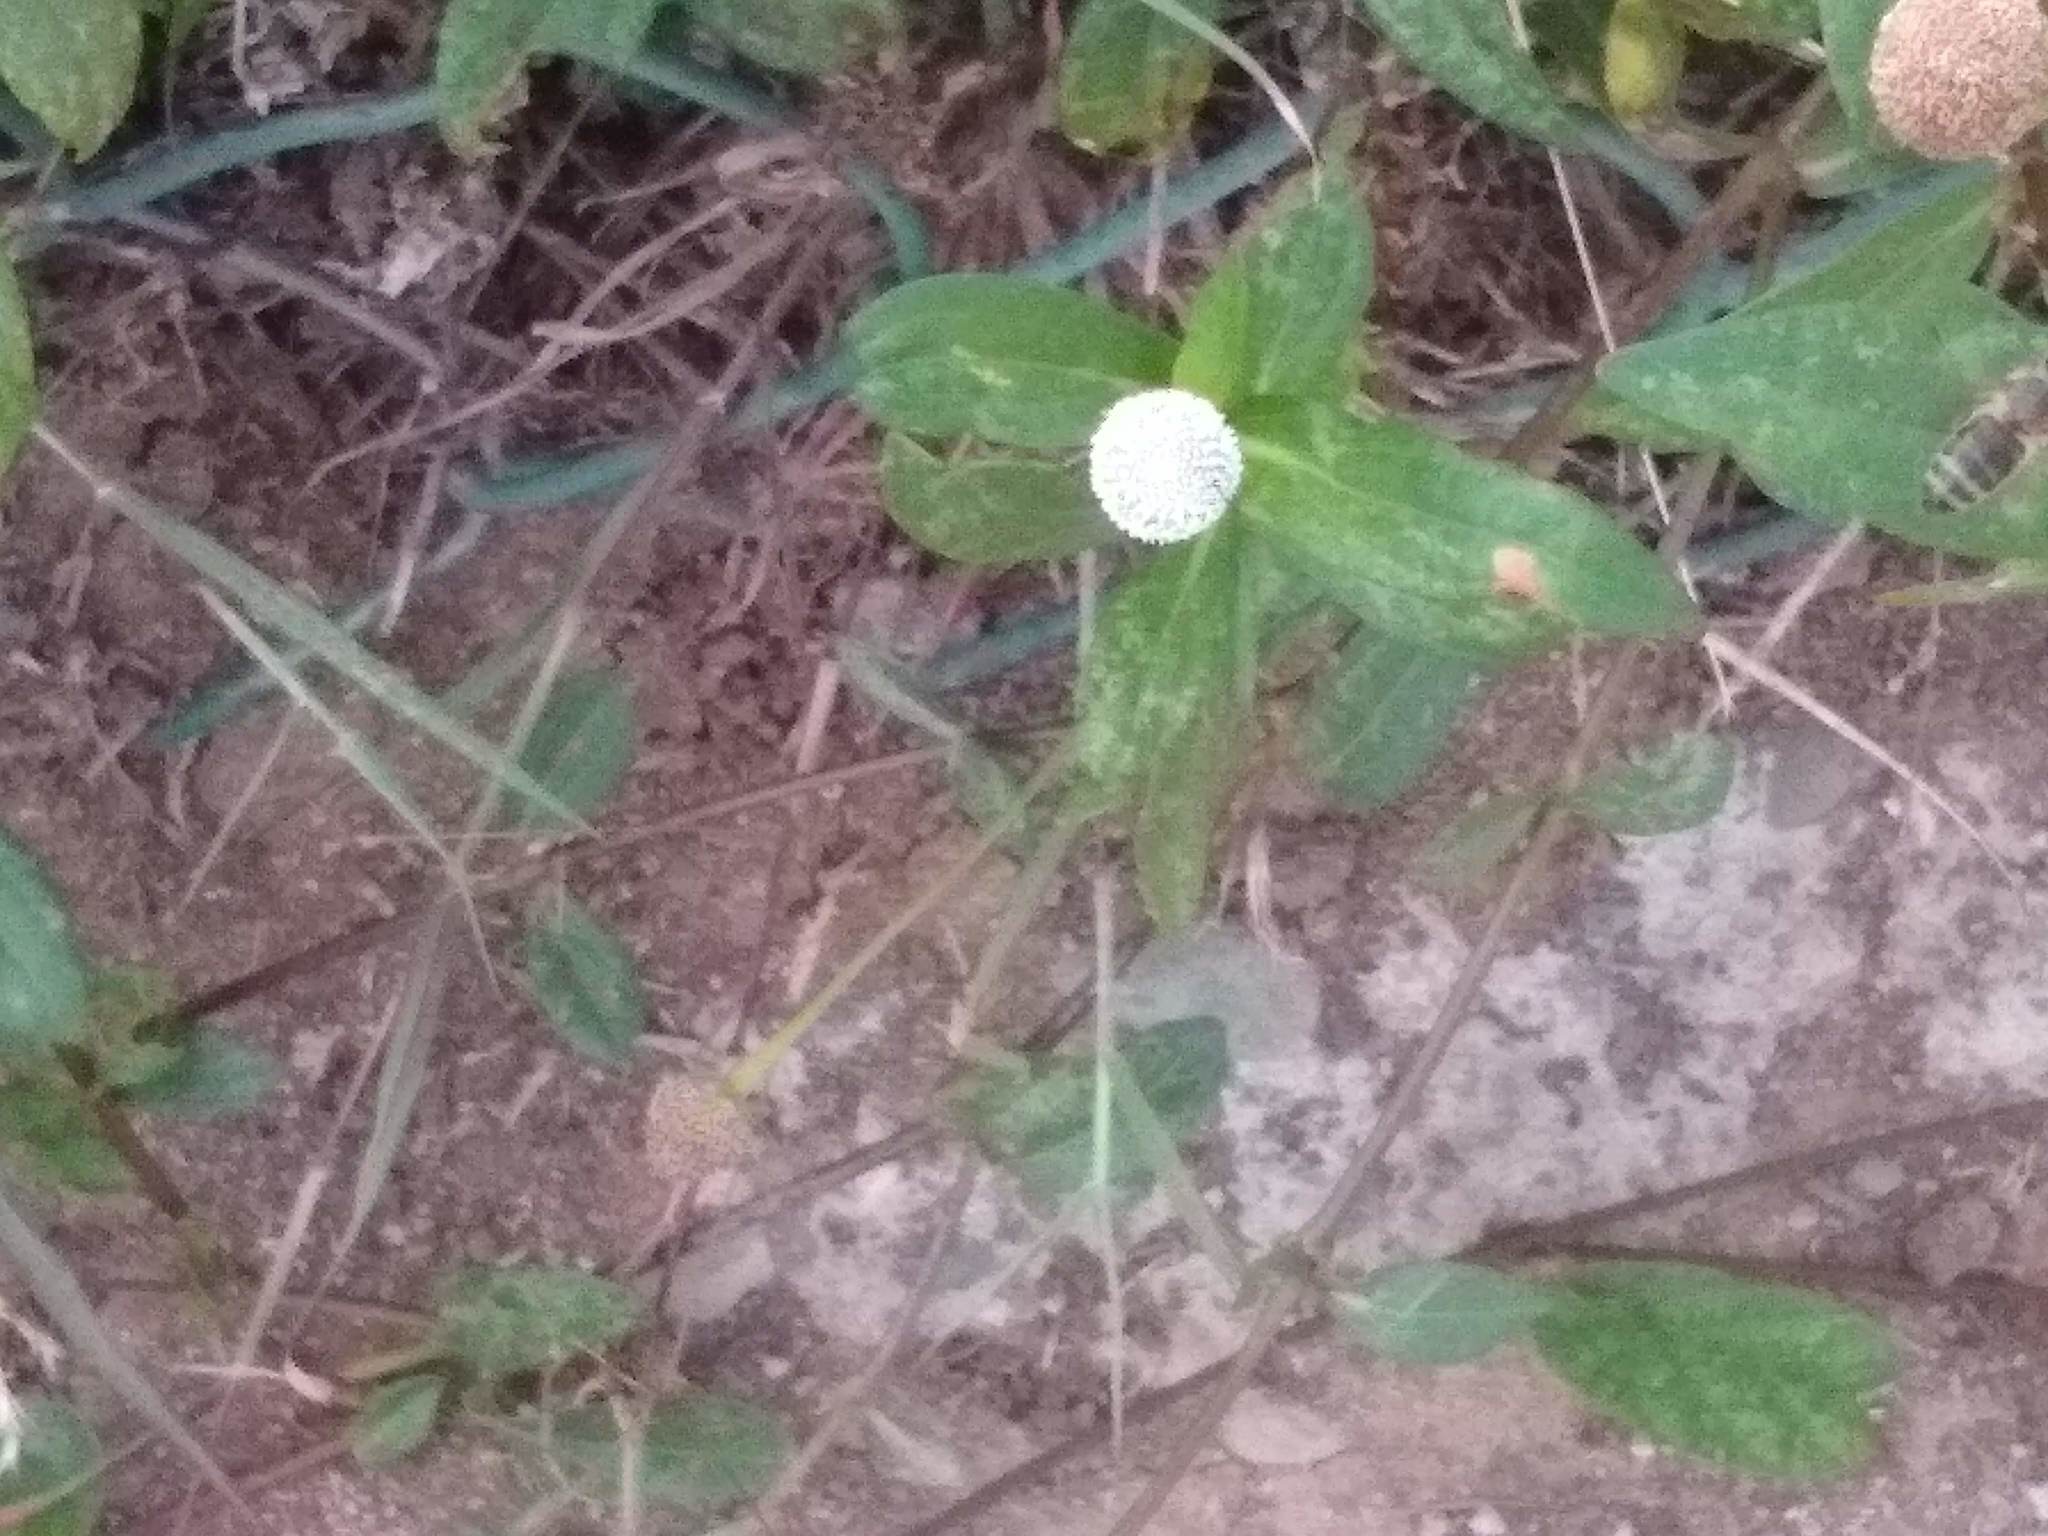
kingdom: Animalia
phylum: Arthropoda
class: Insecta
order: Hymenoptera
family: Apidae
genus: Apis
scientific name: Apis mellifera
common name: Honey bee
